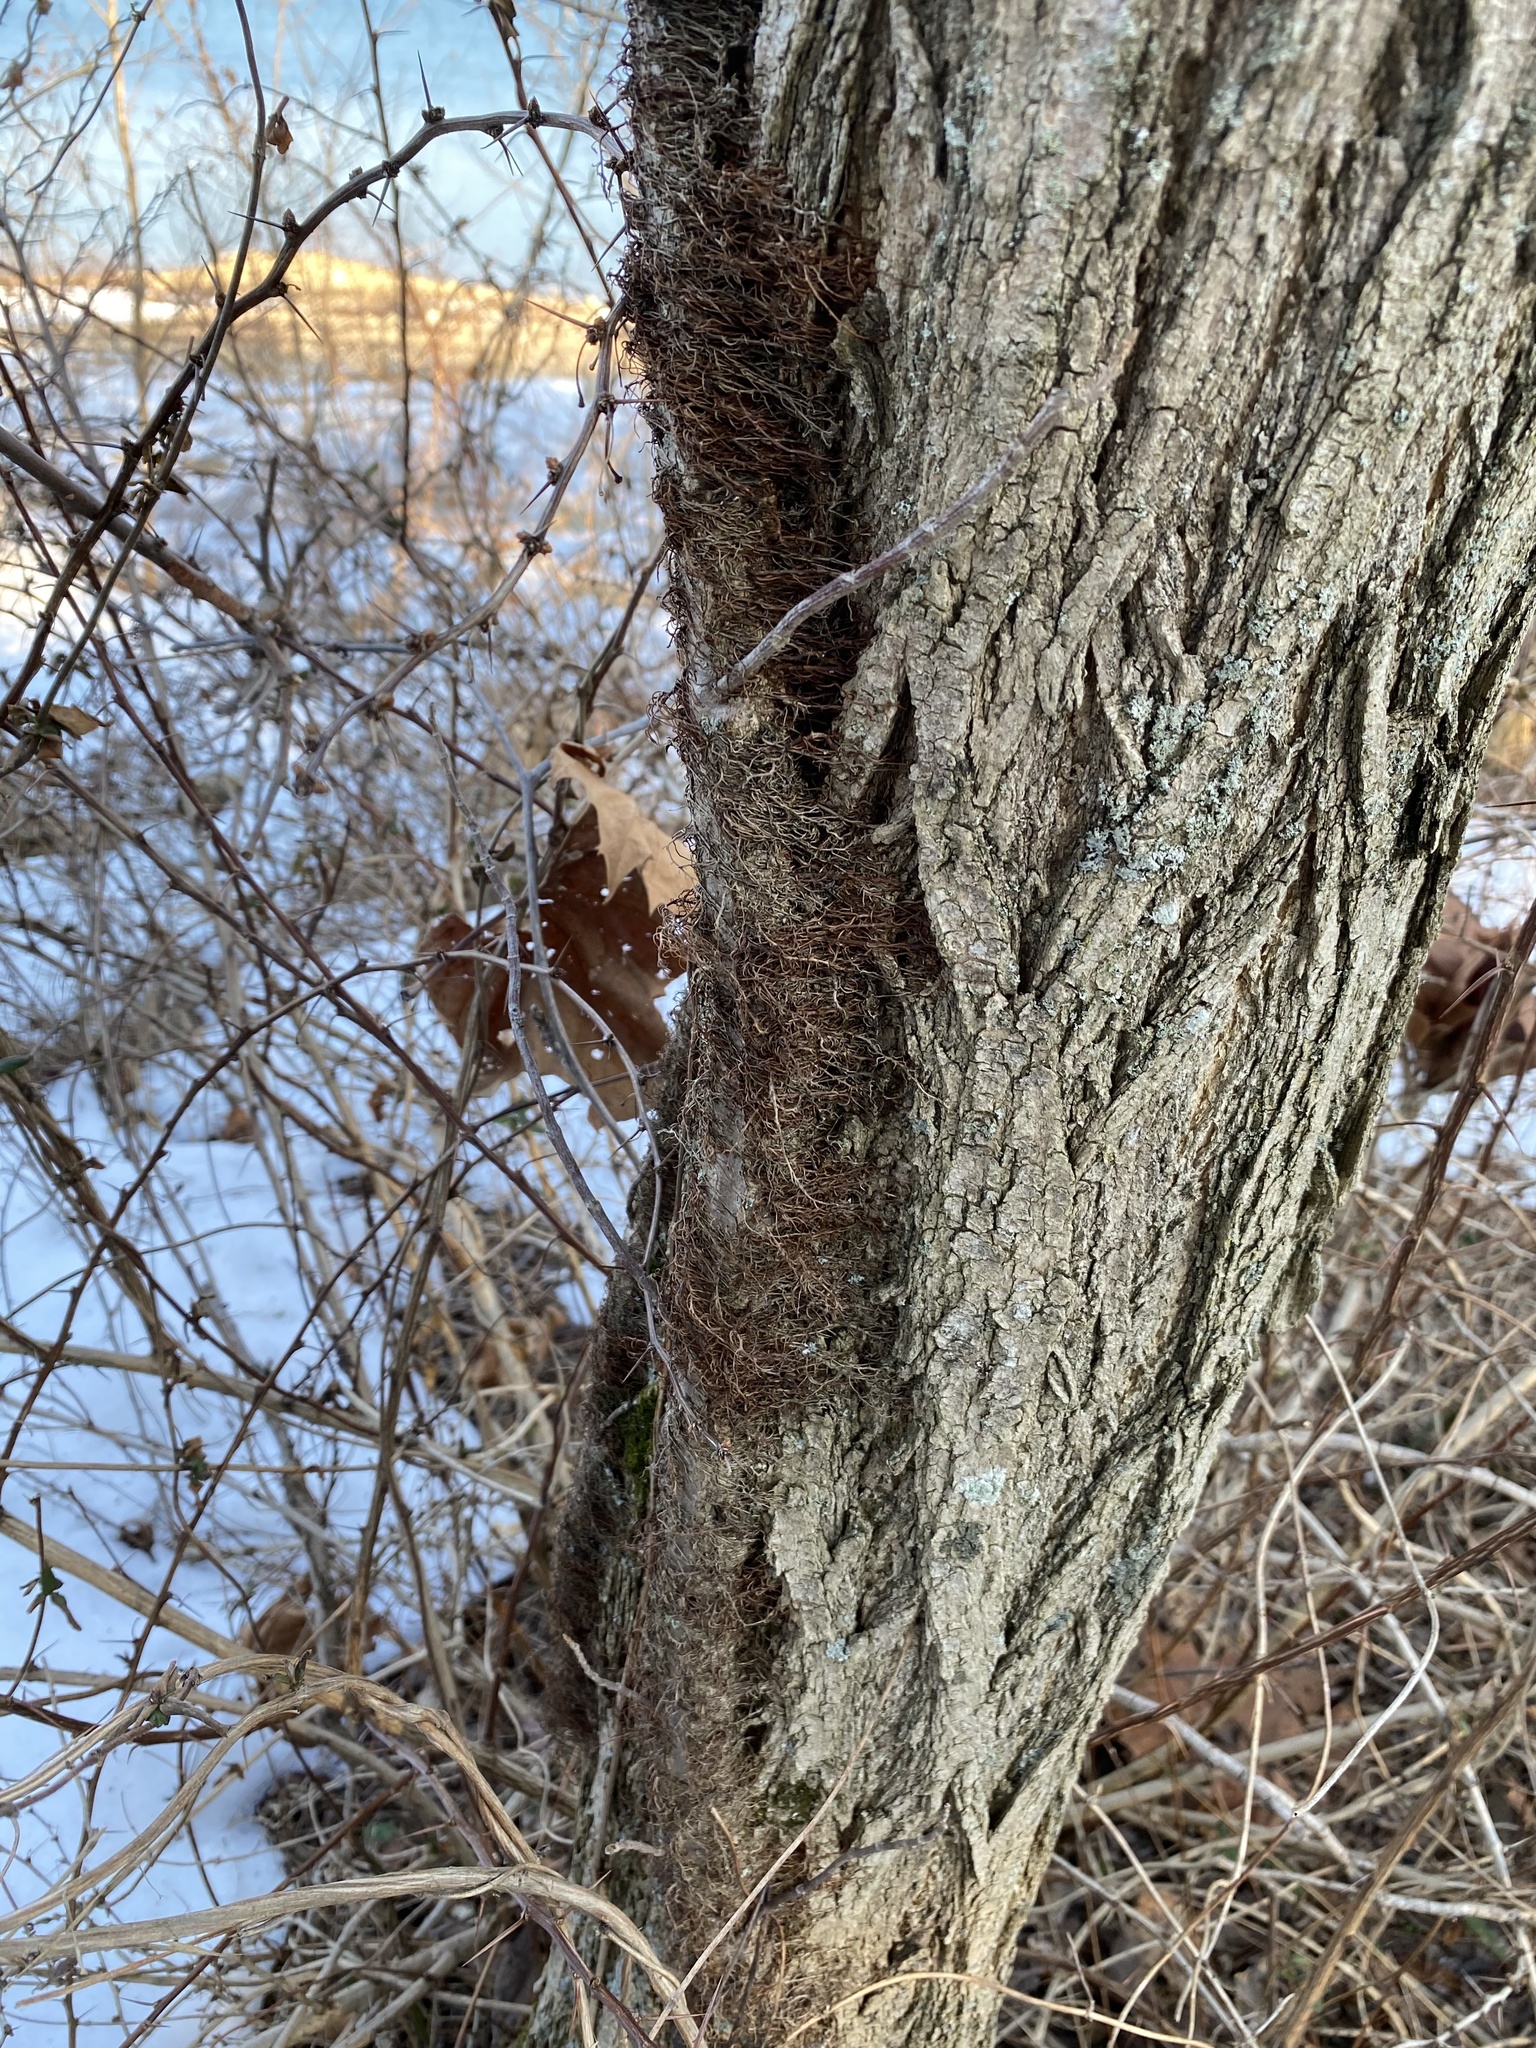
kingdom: Plantae
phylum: Tracheophyta
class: Magnoliopsida
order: Sapindales
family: Anacardiaceae
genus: Toxicodendron
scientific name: Toxicodendron radicans
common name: Poison ivy
